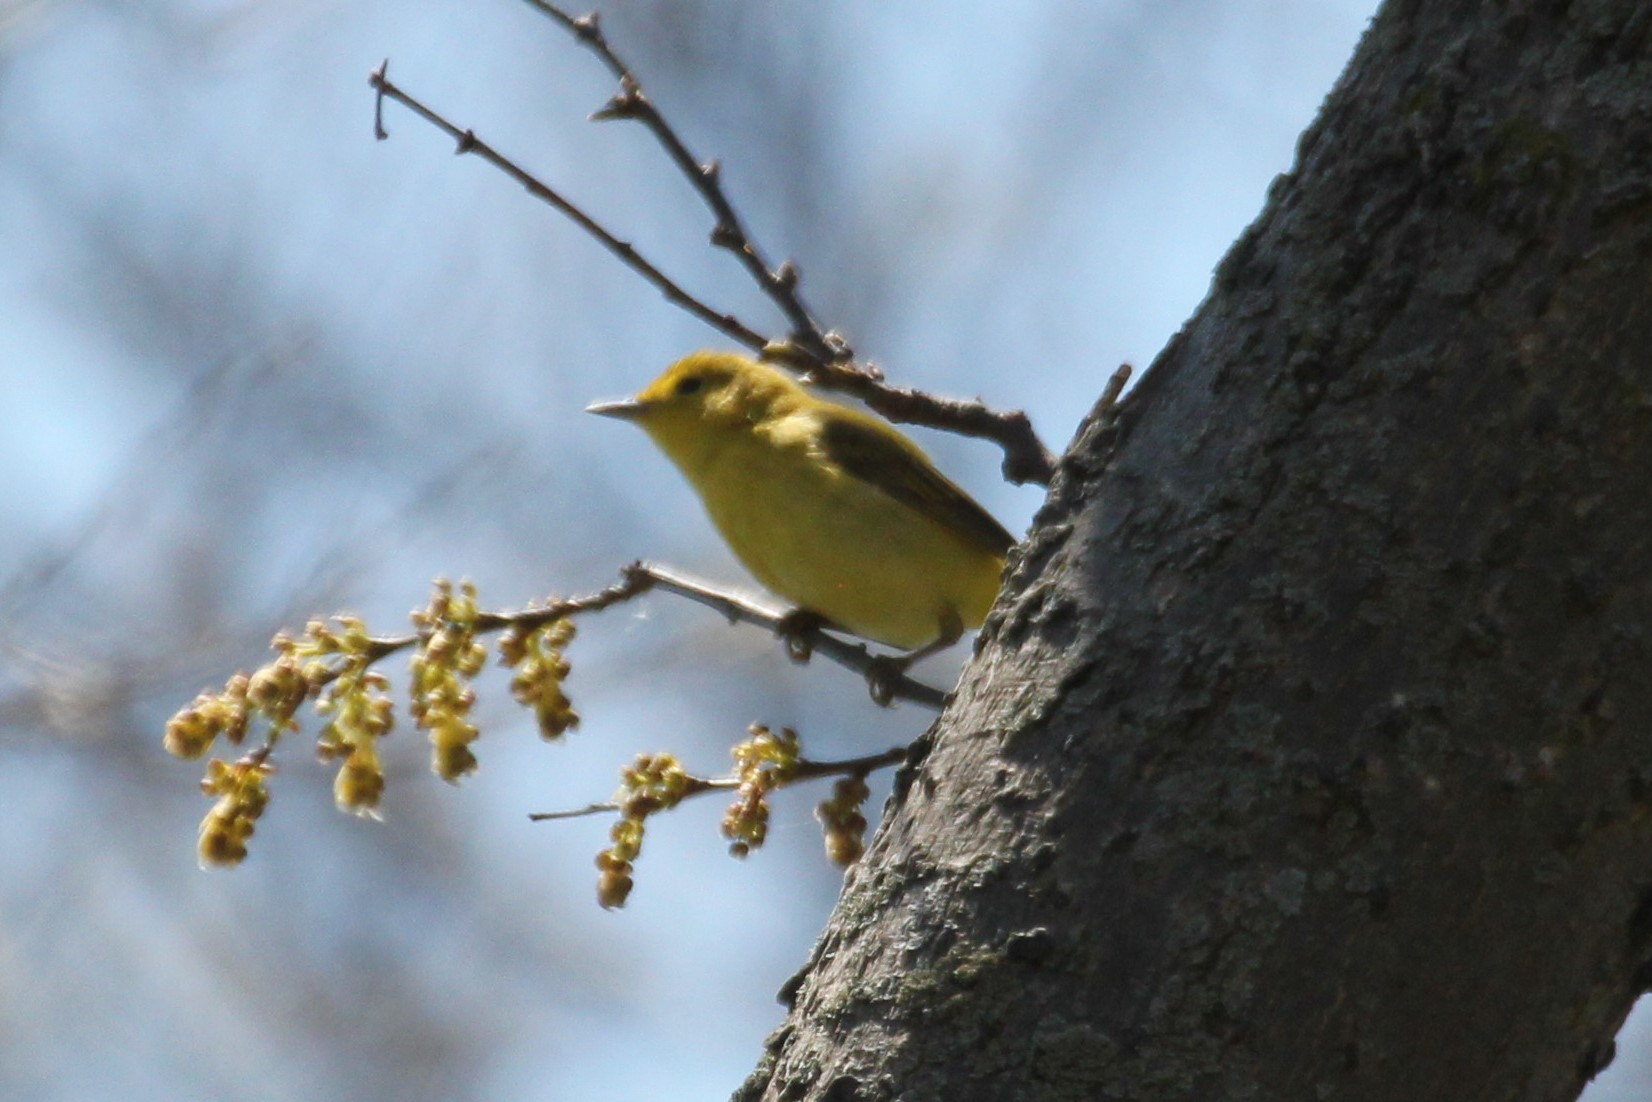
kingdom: Animalia
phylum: Chordata
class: Aves
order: Passeriformes
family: Parulidae
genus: Setophaga
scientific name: Setophaga citrina
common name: Hooded warbler
